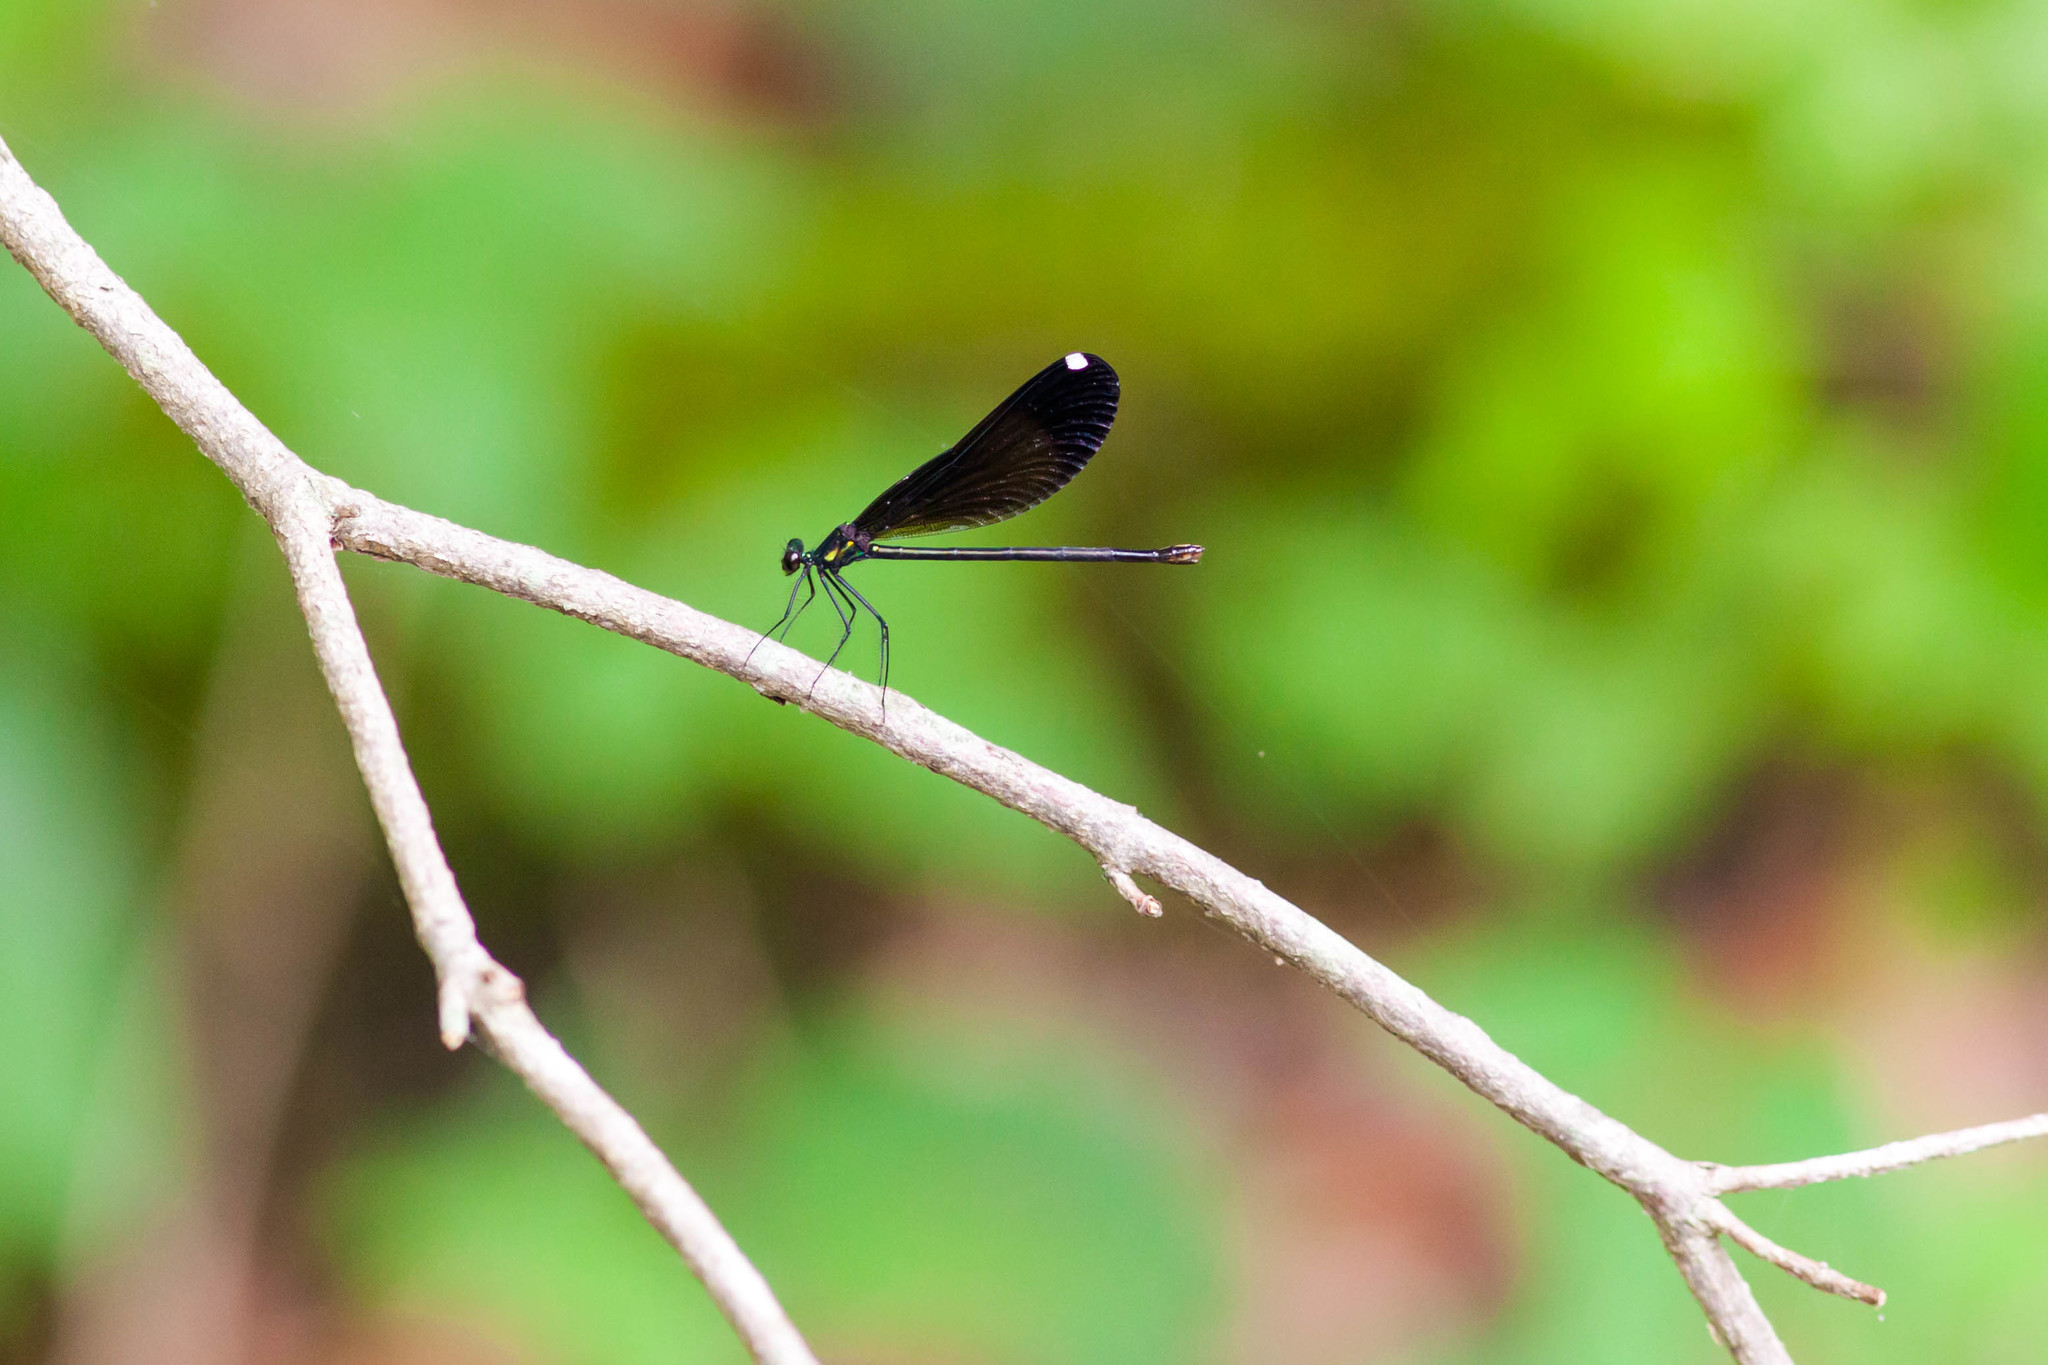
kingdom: Animalia
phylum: Arthropoda
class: Insecta
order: Odonata
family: Calopterygidae
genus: Calopteryx
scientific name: Calopteryx maculata
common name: Ebony jewelwing
